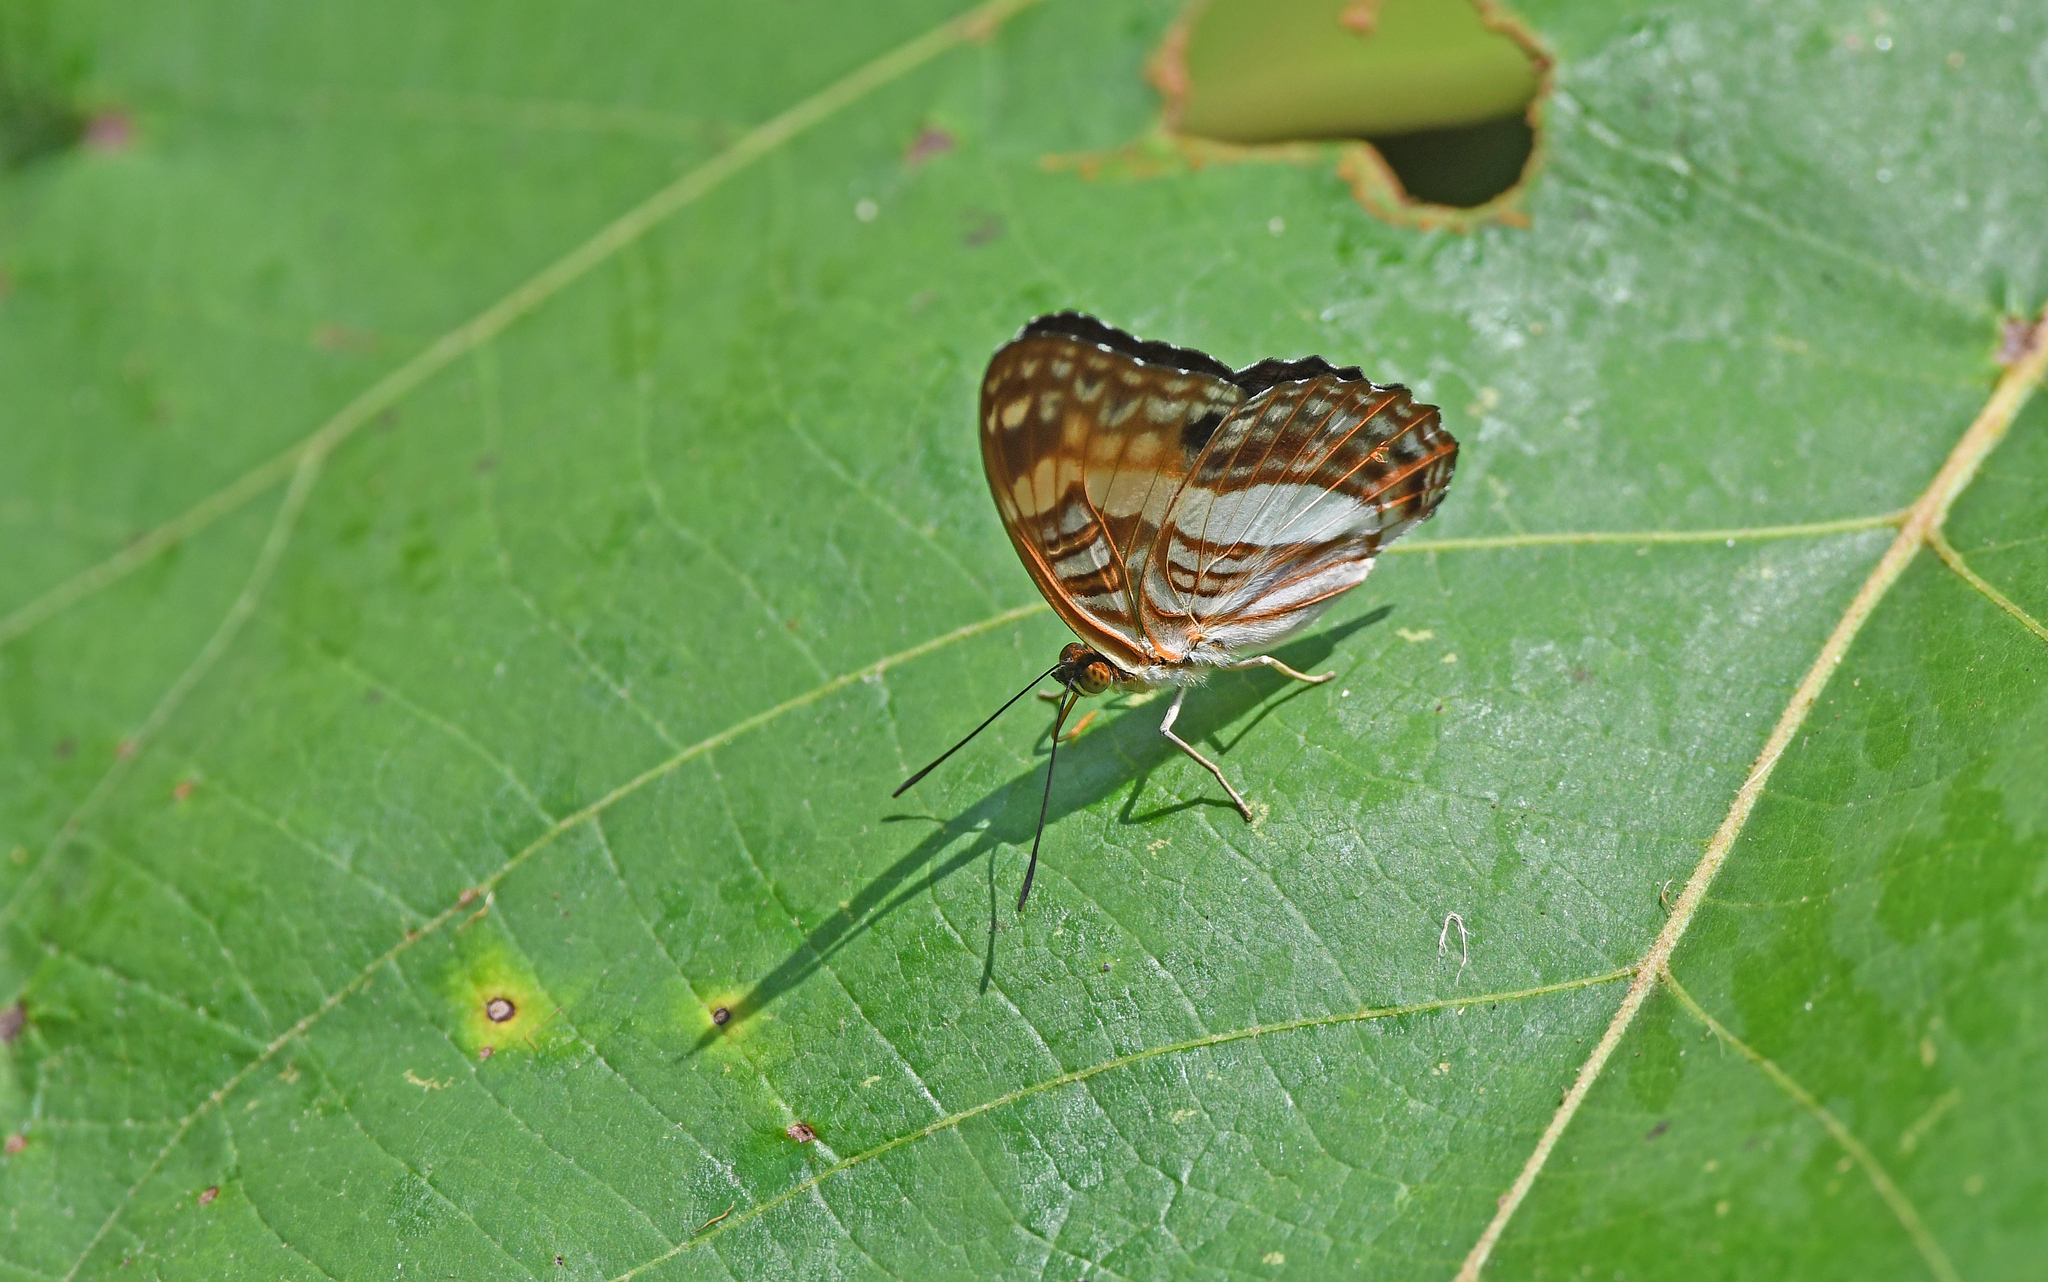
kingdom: Animalia
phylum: Arthropoda
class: Insecta
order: Lepidoptera
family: Nymphalidae
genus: Limenitis
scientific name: Limenitis jordani
